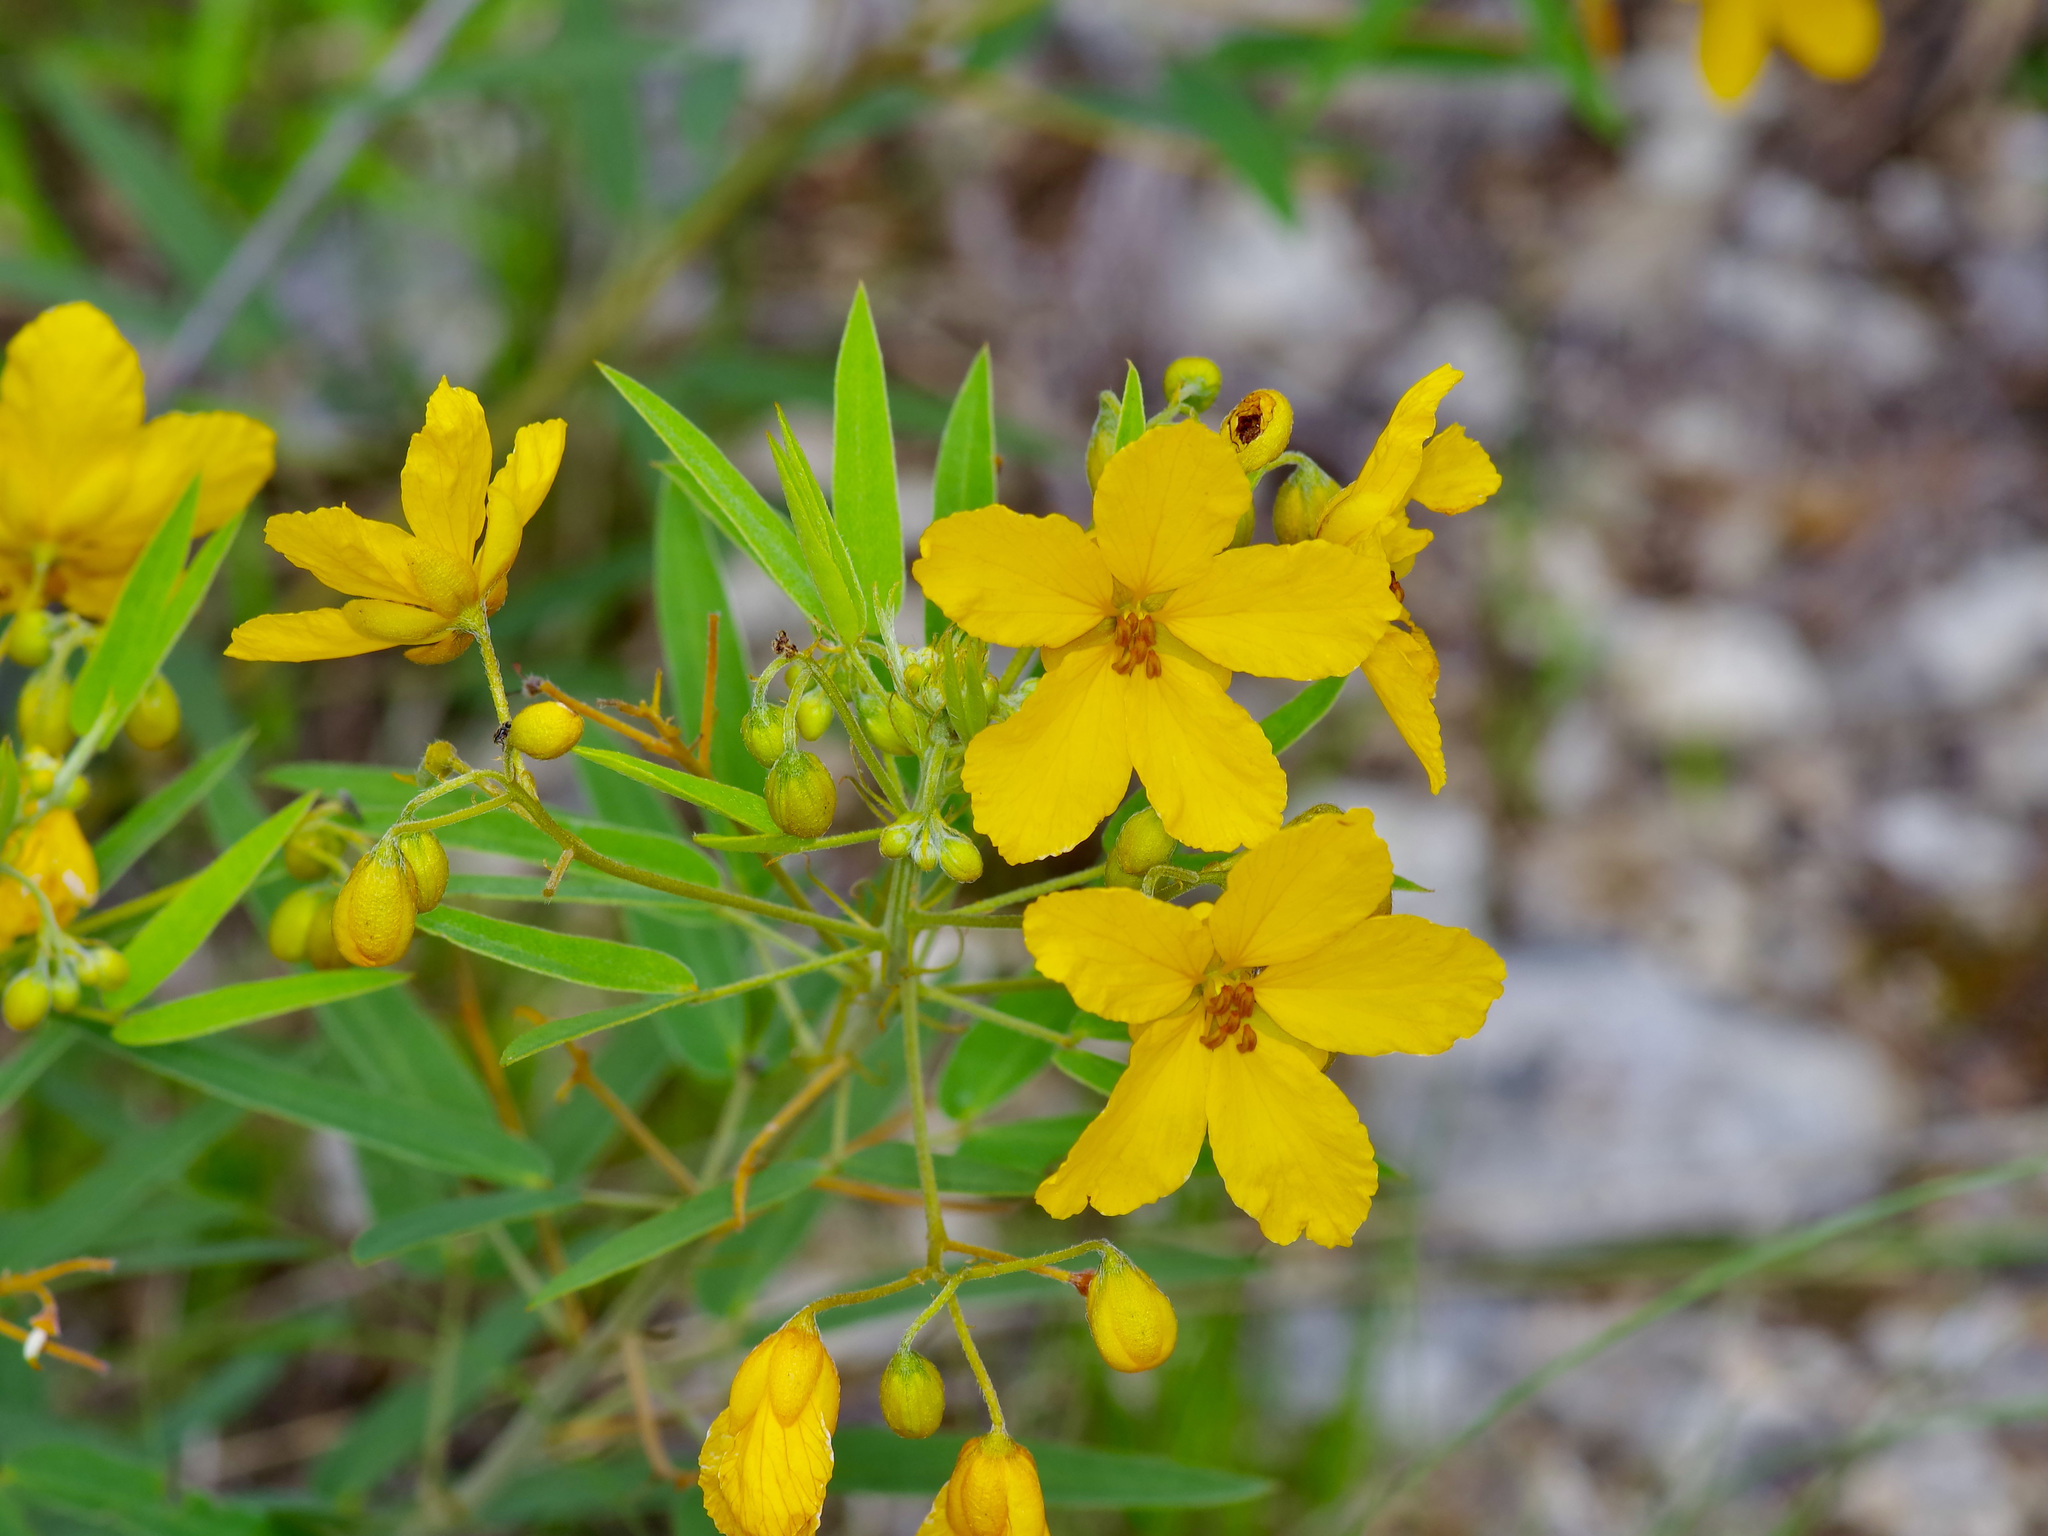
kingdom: Plantae
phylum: Tracheophyta
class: Magnoliopsida
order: Fabales
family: Fabaceae
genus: Senna
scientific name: Senna roemeriana
